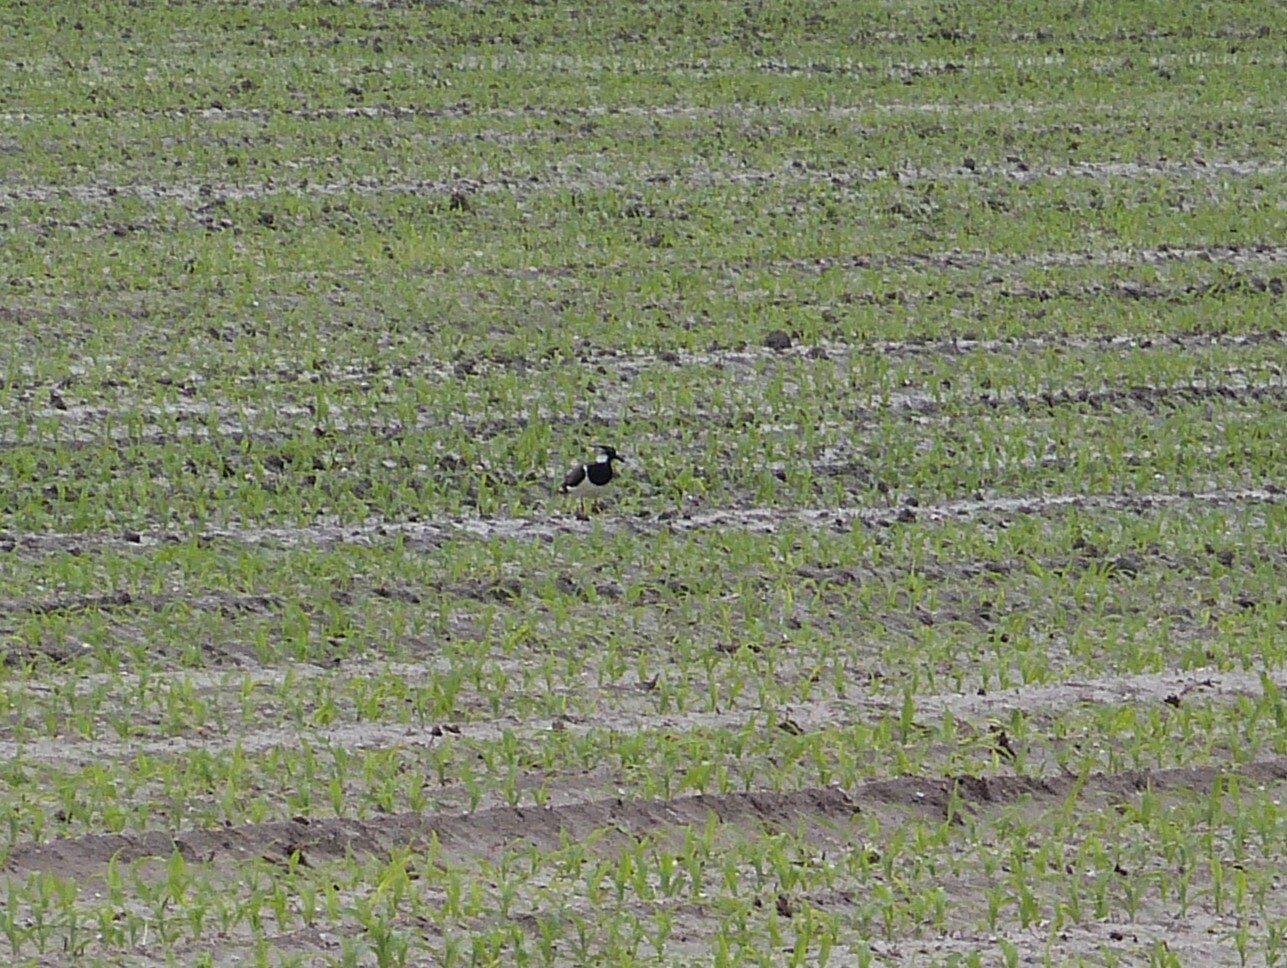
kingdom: Animalia
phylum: Chordata
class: Aves
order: Charadriiformes
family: Charadriidae
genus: Vanellus
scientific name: Vanellus vanellus
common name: Northern lapwing
